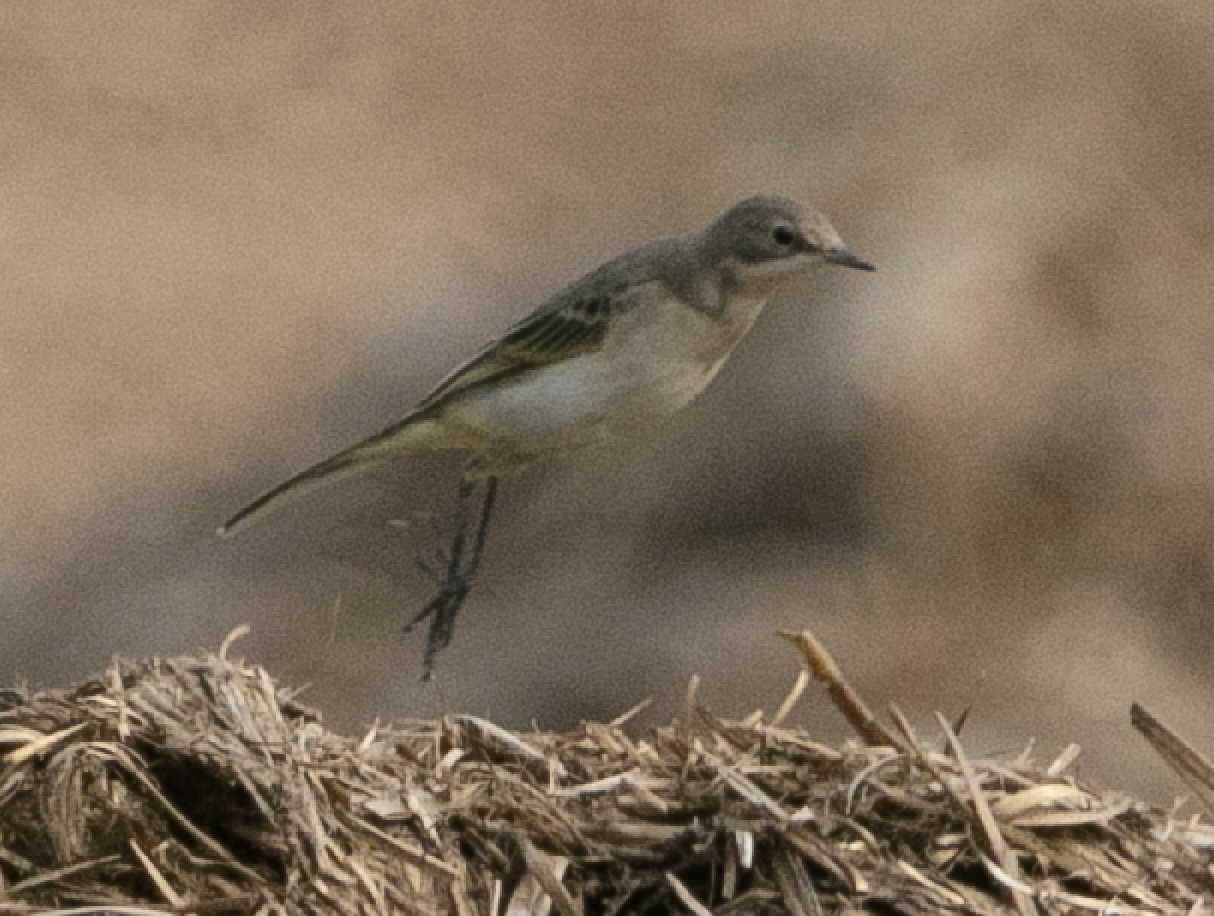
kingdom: Animalia
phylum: Chordata
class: Aves
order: Passeriformes
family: Motacillidae
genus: Motacilla
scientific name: Motacilla flava
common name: Western yellow wagtail
